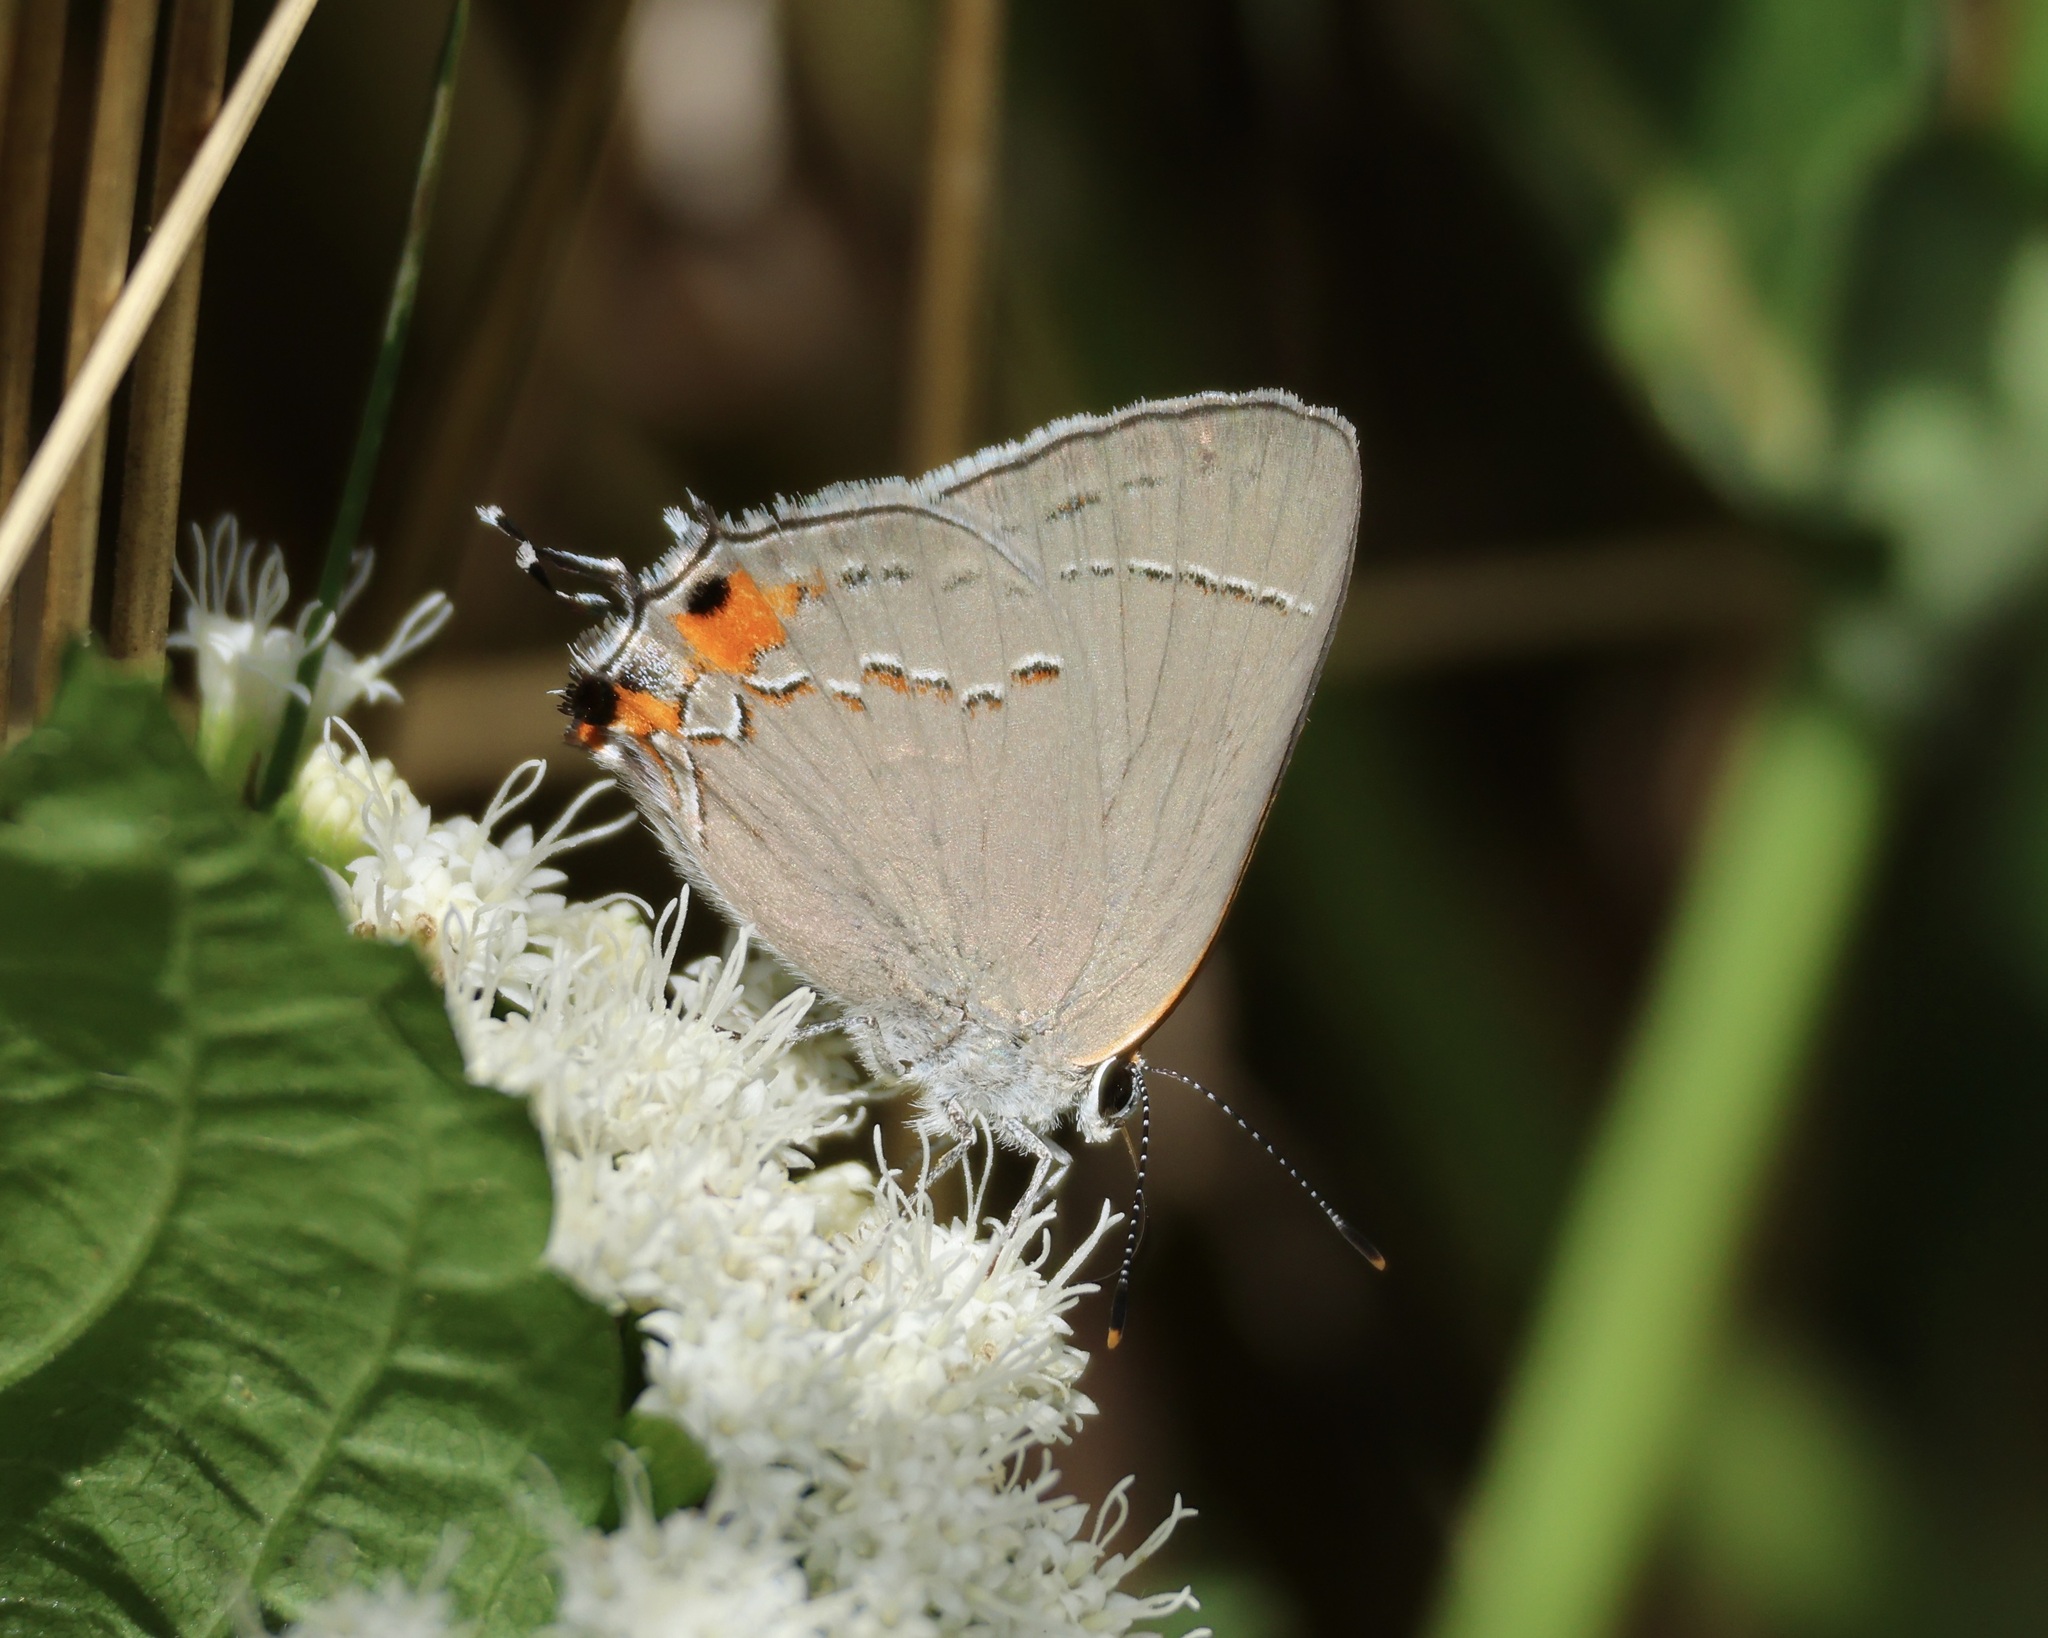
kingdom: Animalia
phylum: Arthropoda
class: Insecta
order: Lepidoptera
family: Lycaenidae
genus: Strymon
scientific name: Strymon melinus
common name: Gray hairstreak
